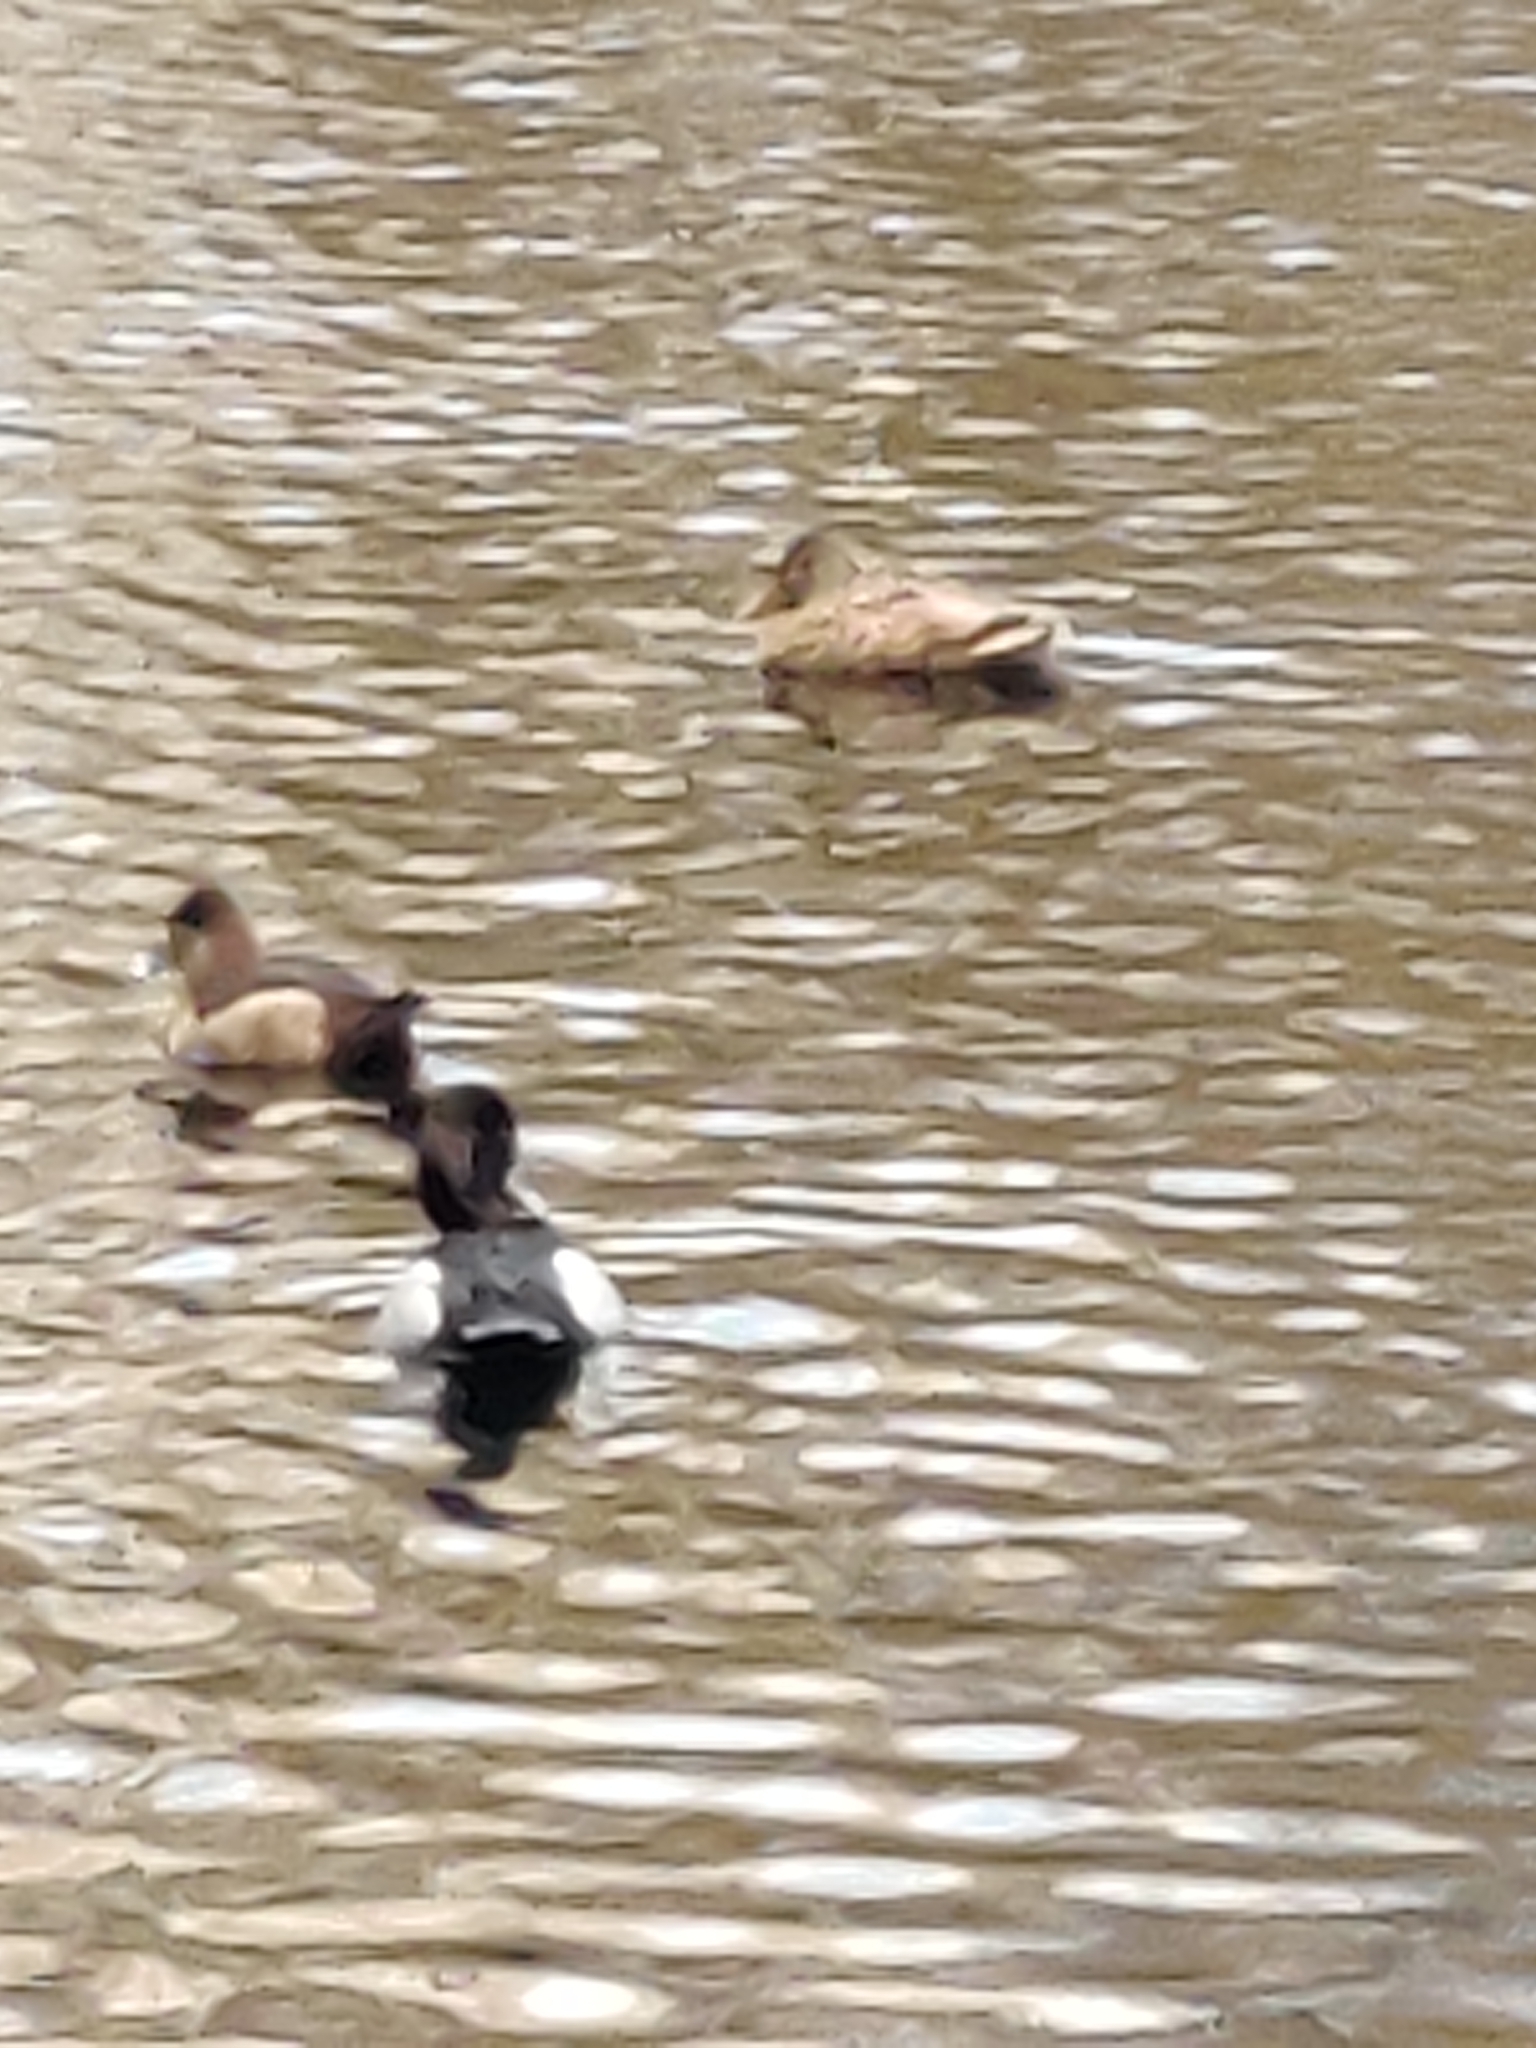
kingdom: Animalia
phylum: Chordata
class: Aves
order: Anseriformes
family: Anatidae
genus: Aythya
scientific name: Aythya collaris
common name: Ring-necked duck
